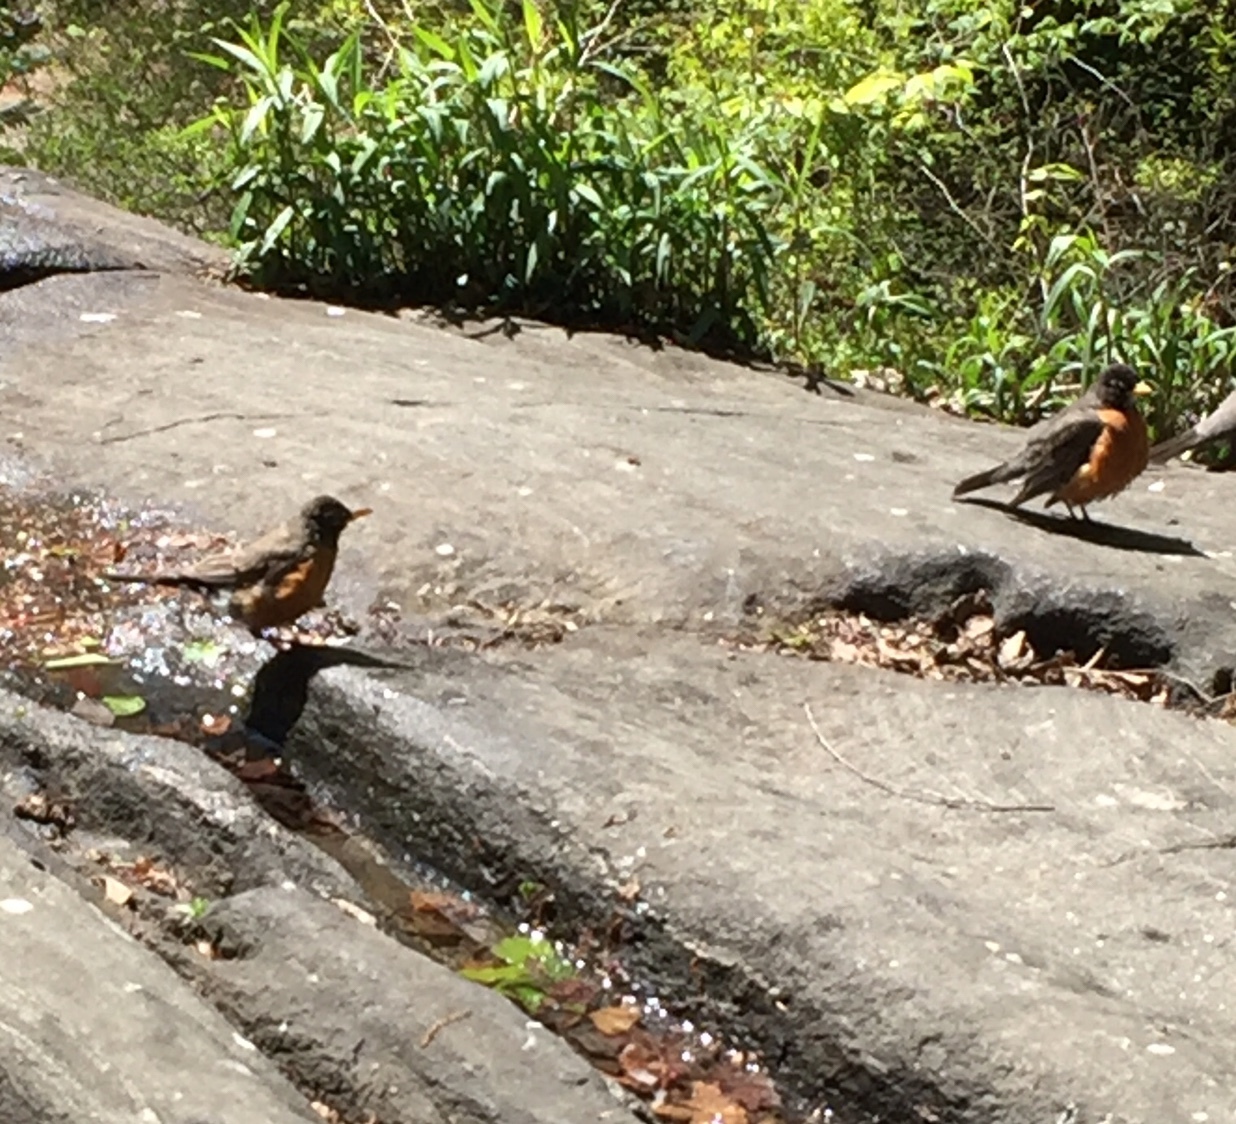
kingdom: Animalia
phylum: Chordata
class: Aves
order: Passeriformes
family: Turdidae
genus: Turdus
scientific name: Turdus migratorius
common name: American robin
